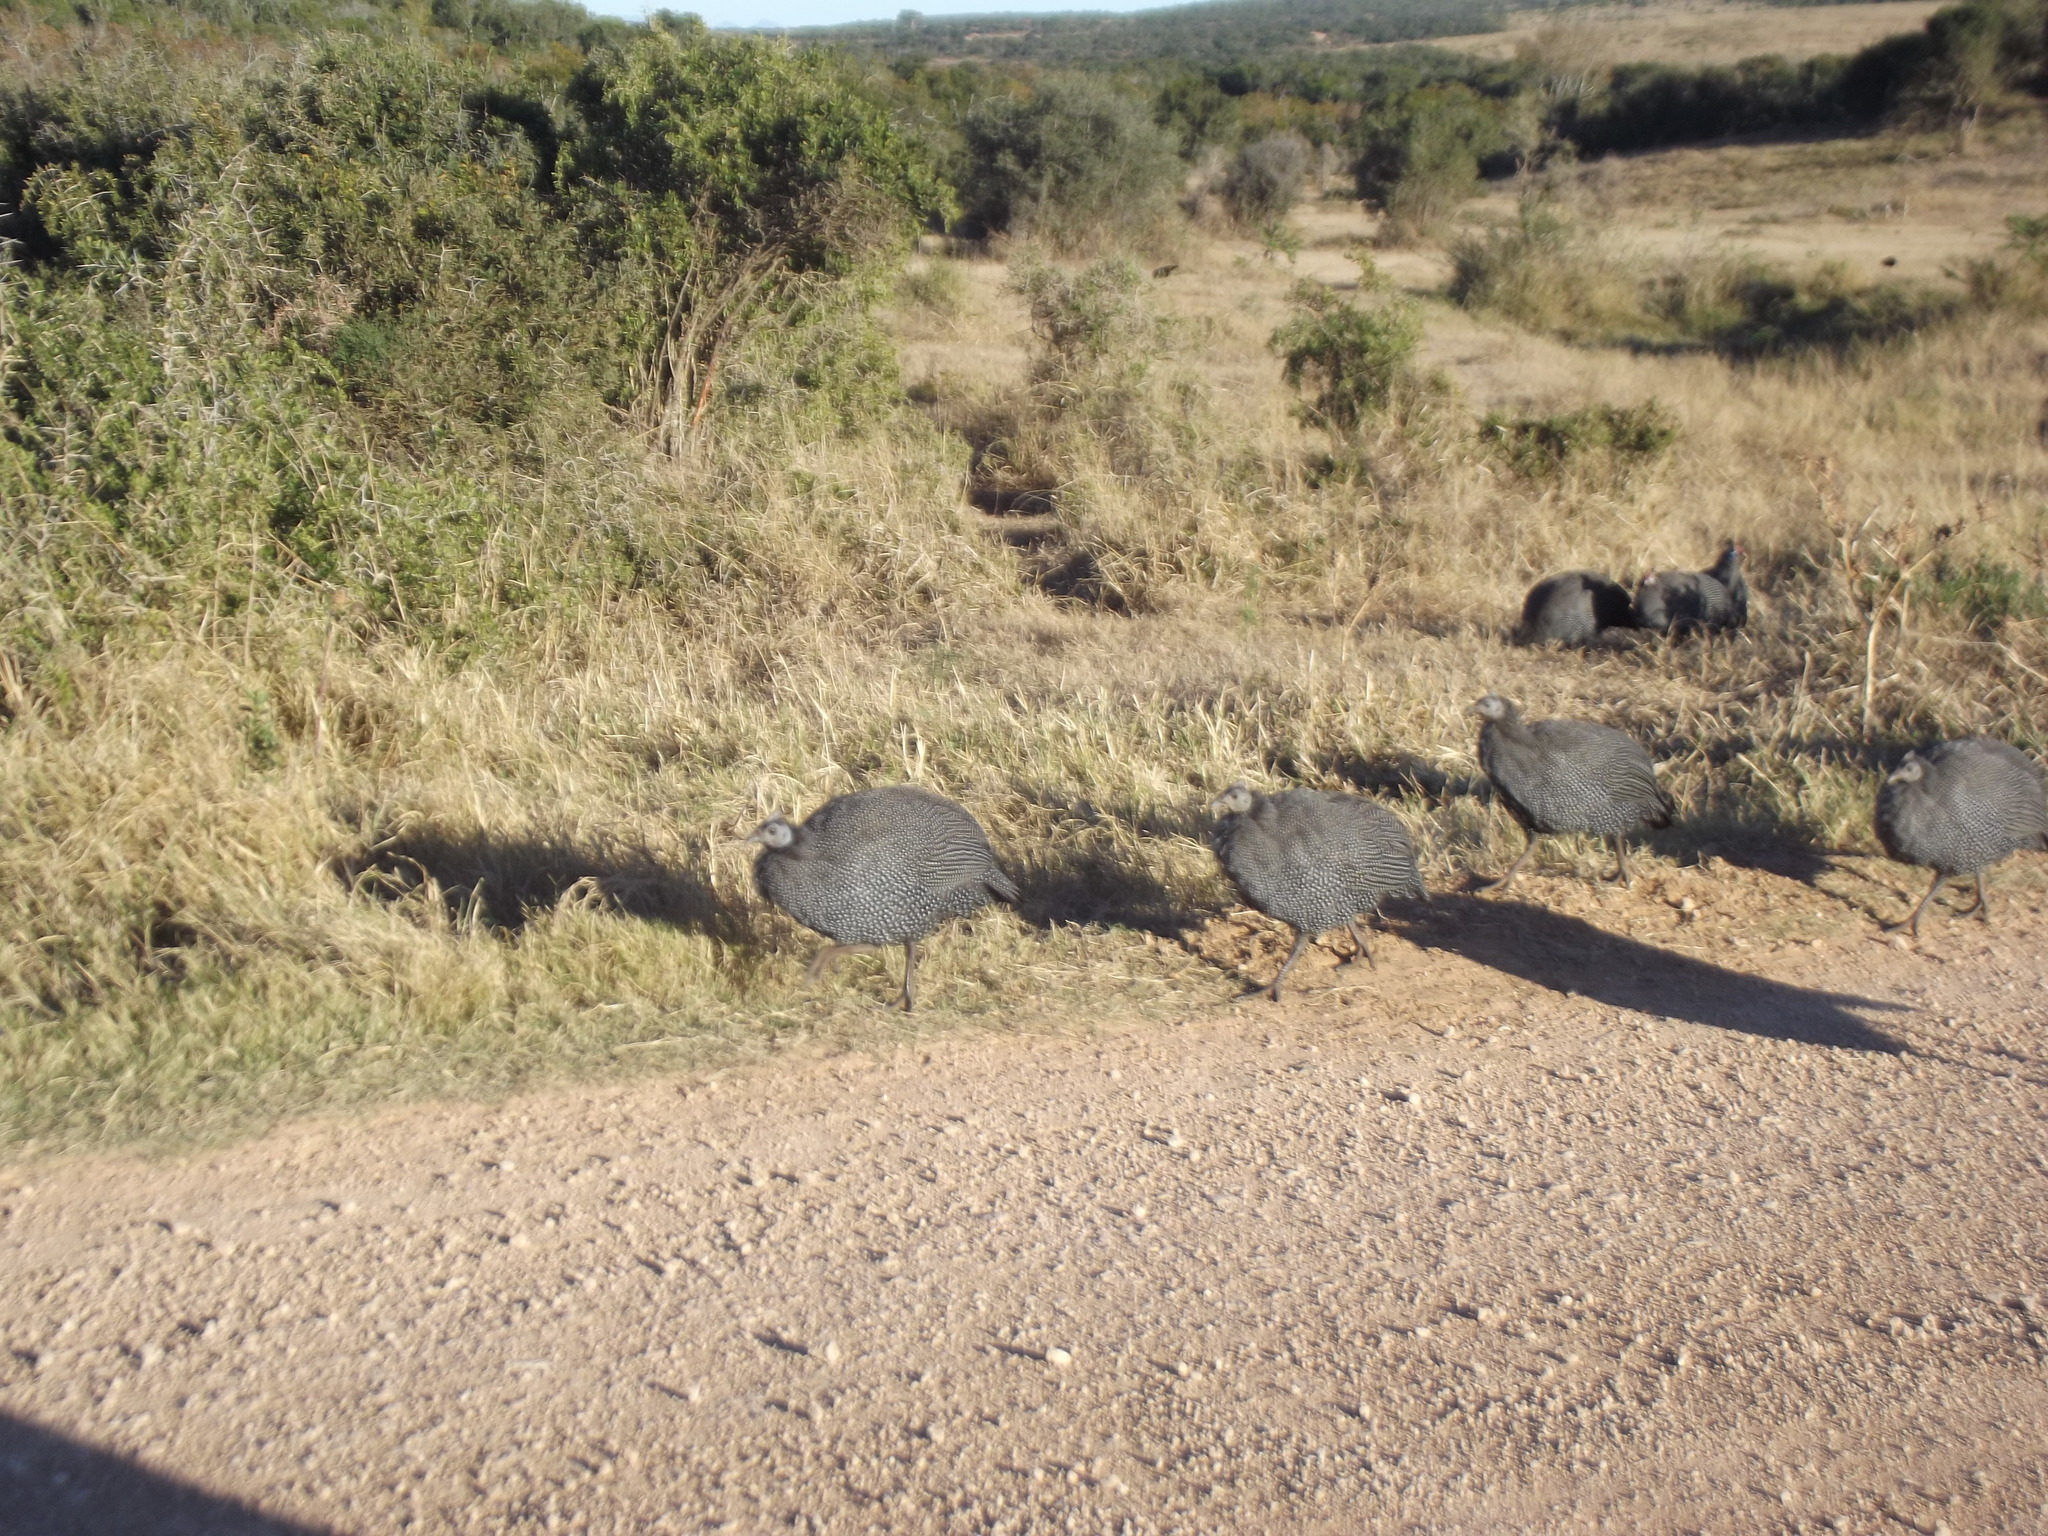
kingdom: Animalia
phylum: Chordata
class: Aves
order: Galliformes
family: Numididae
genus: Numida
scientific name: Numida meleagris
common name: Helmeted guineafowl
